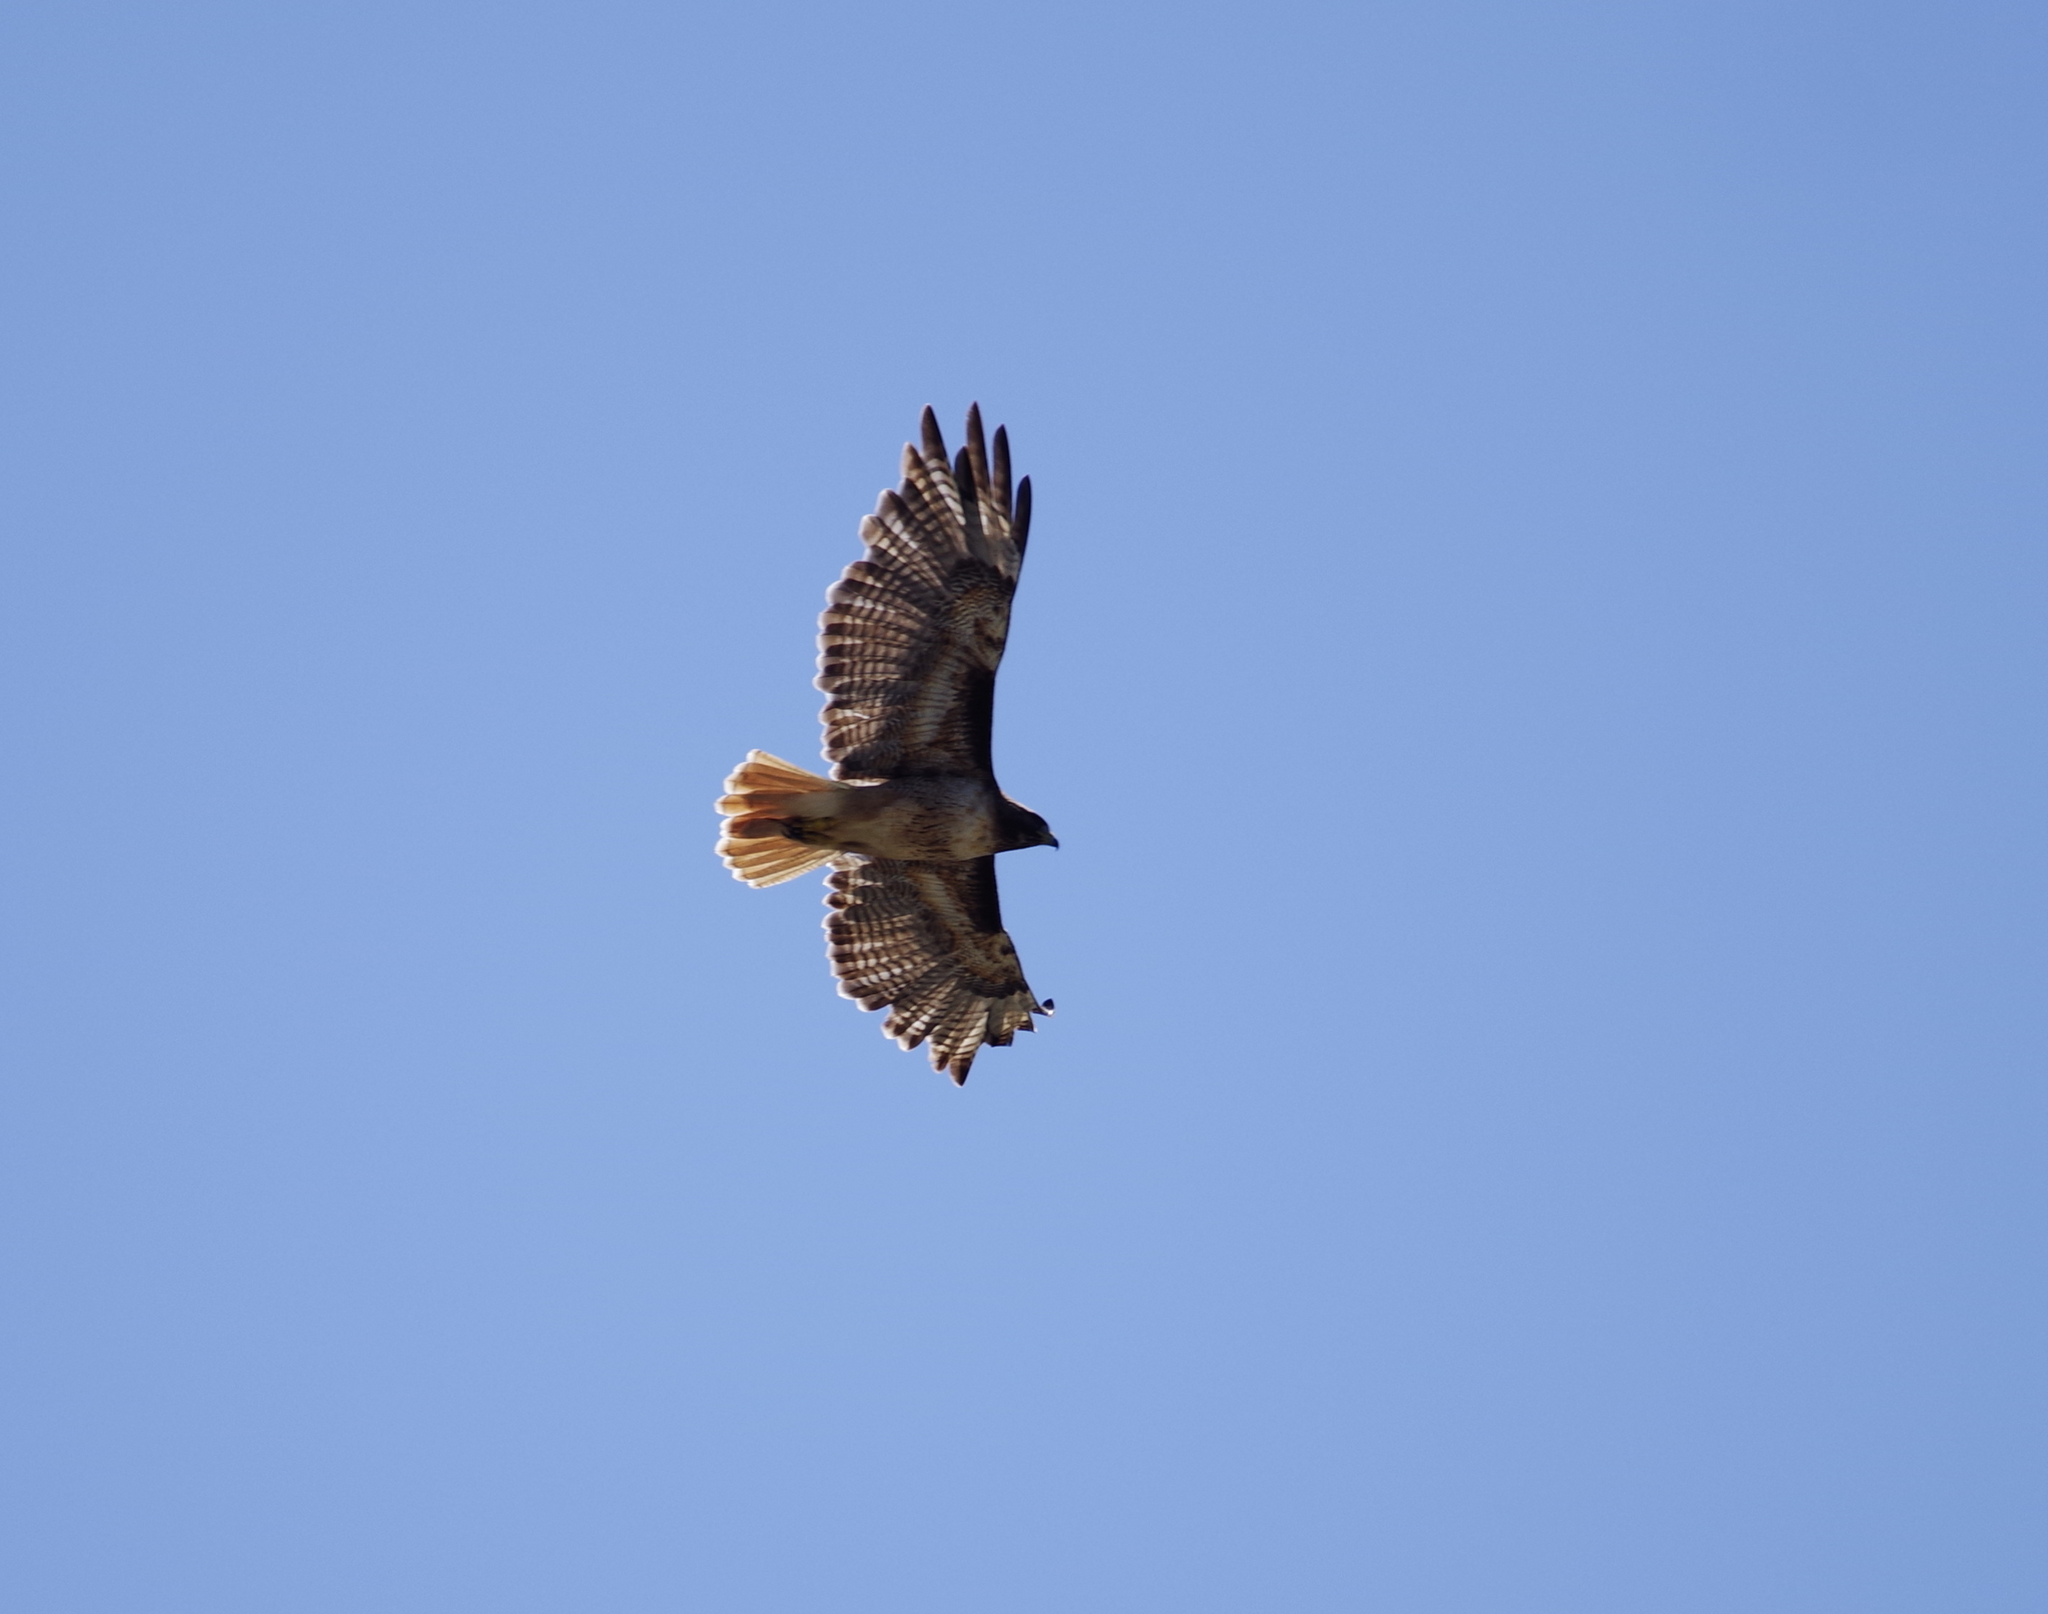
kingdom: Animalia
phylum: Chordata
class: Aves
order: Accipitriformes
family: Accipitridae
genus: Buteo
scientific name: Buteo jamaicensis
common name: Red-tailed hawk
